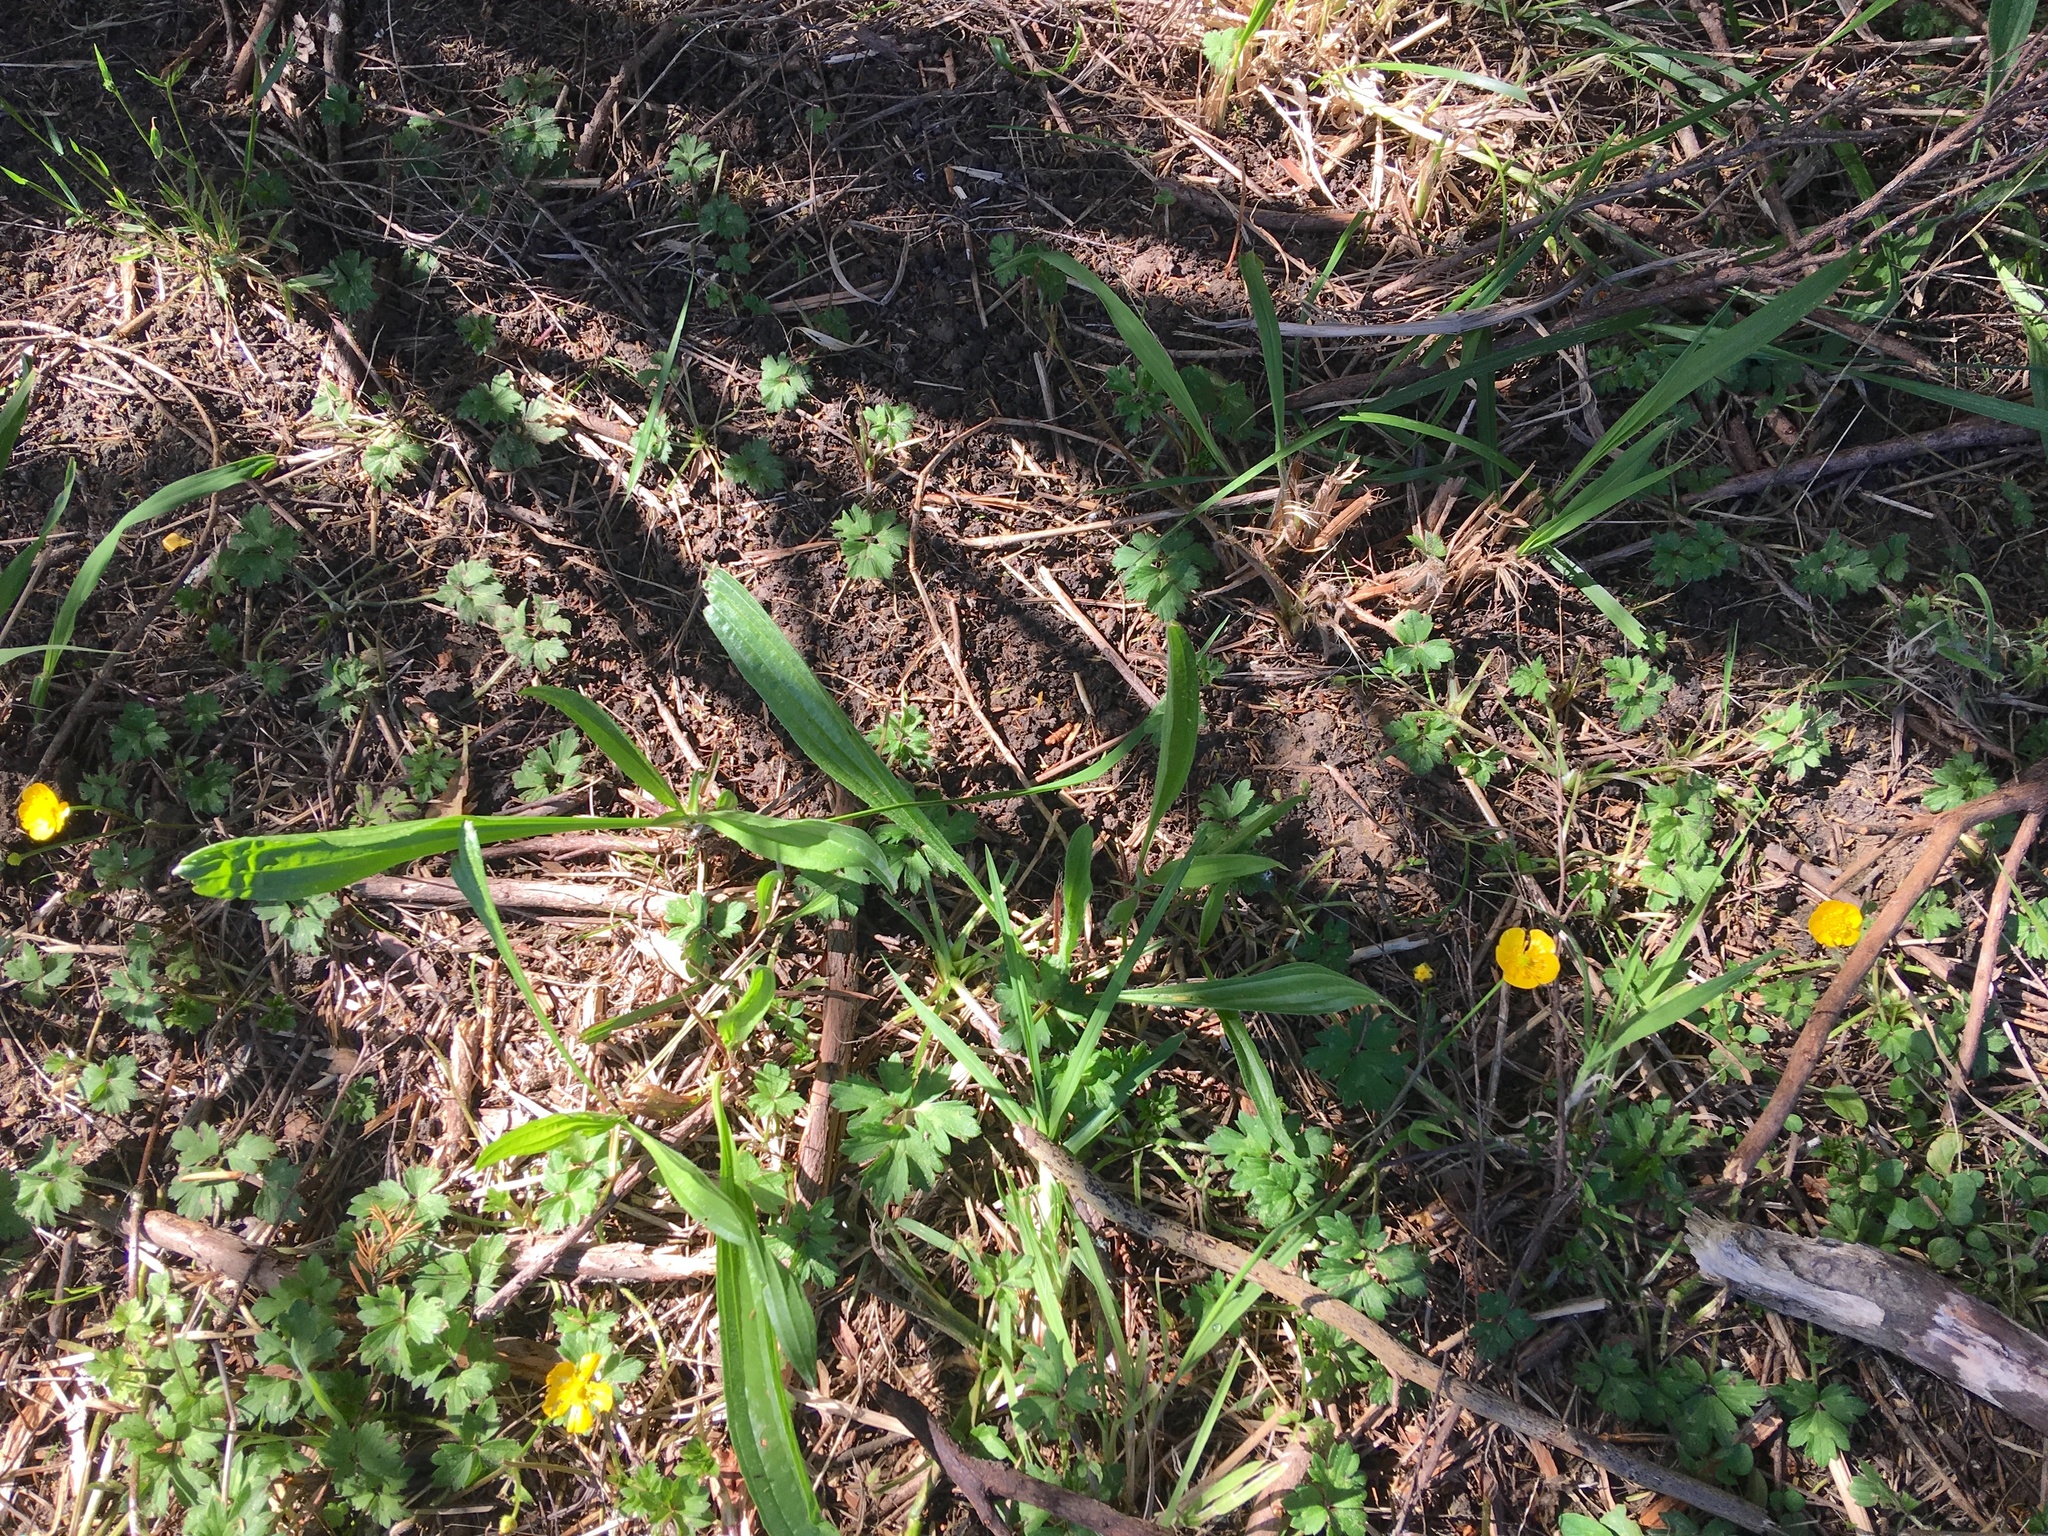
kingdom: Plantae
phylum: Tracheophyta
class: Magnoliopsida
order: Lamiales
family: Plantaginaceae
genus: Plantago
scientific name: Plantago lanceolata
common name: Ribwort plantain
